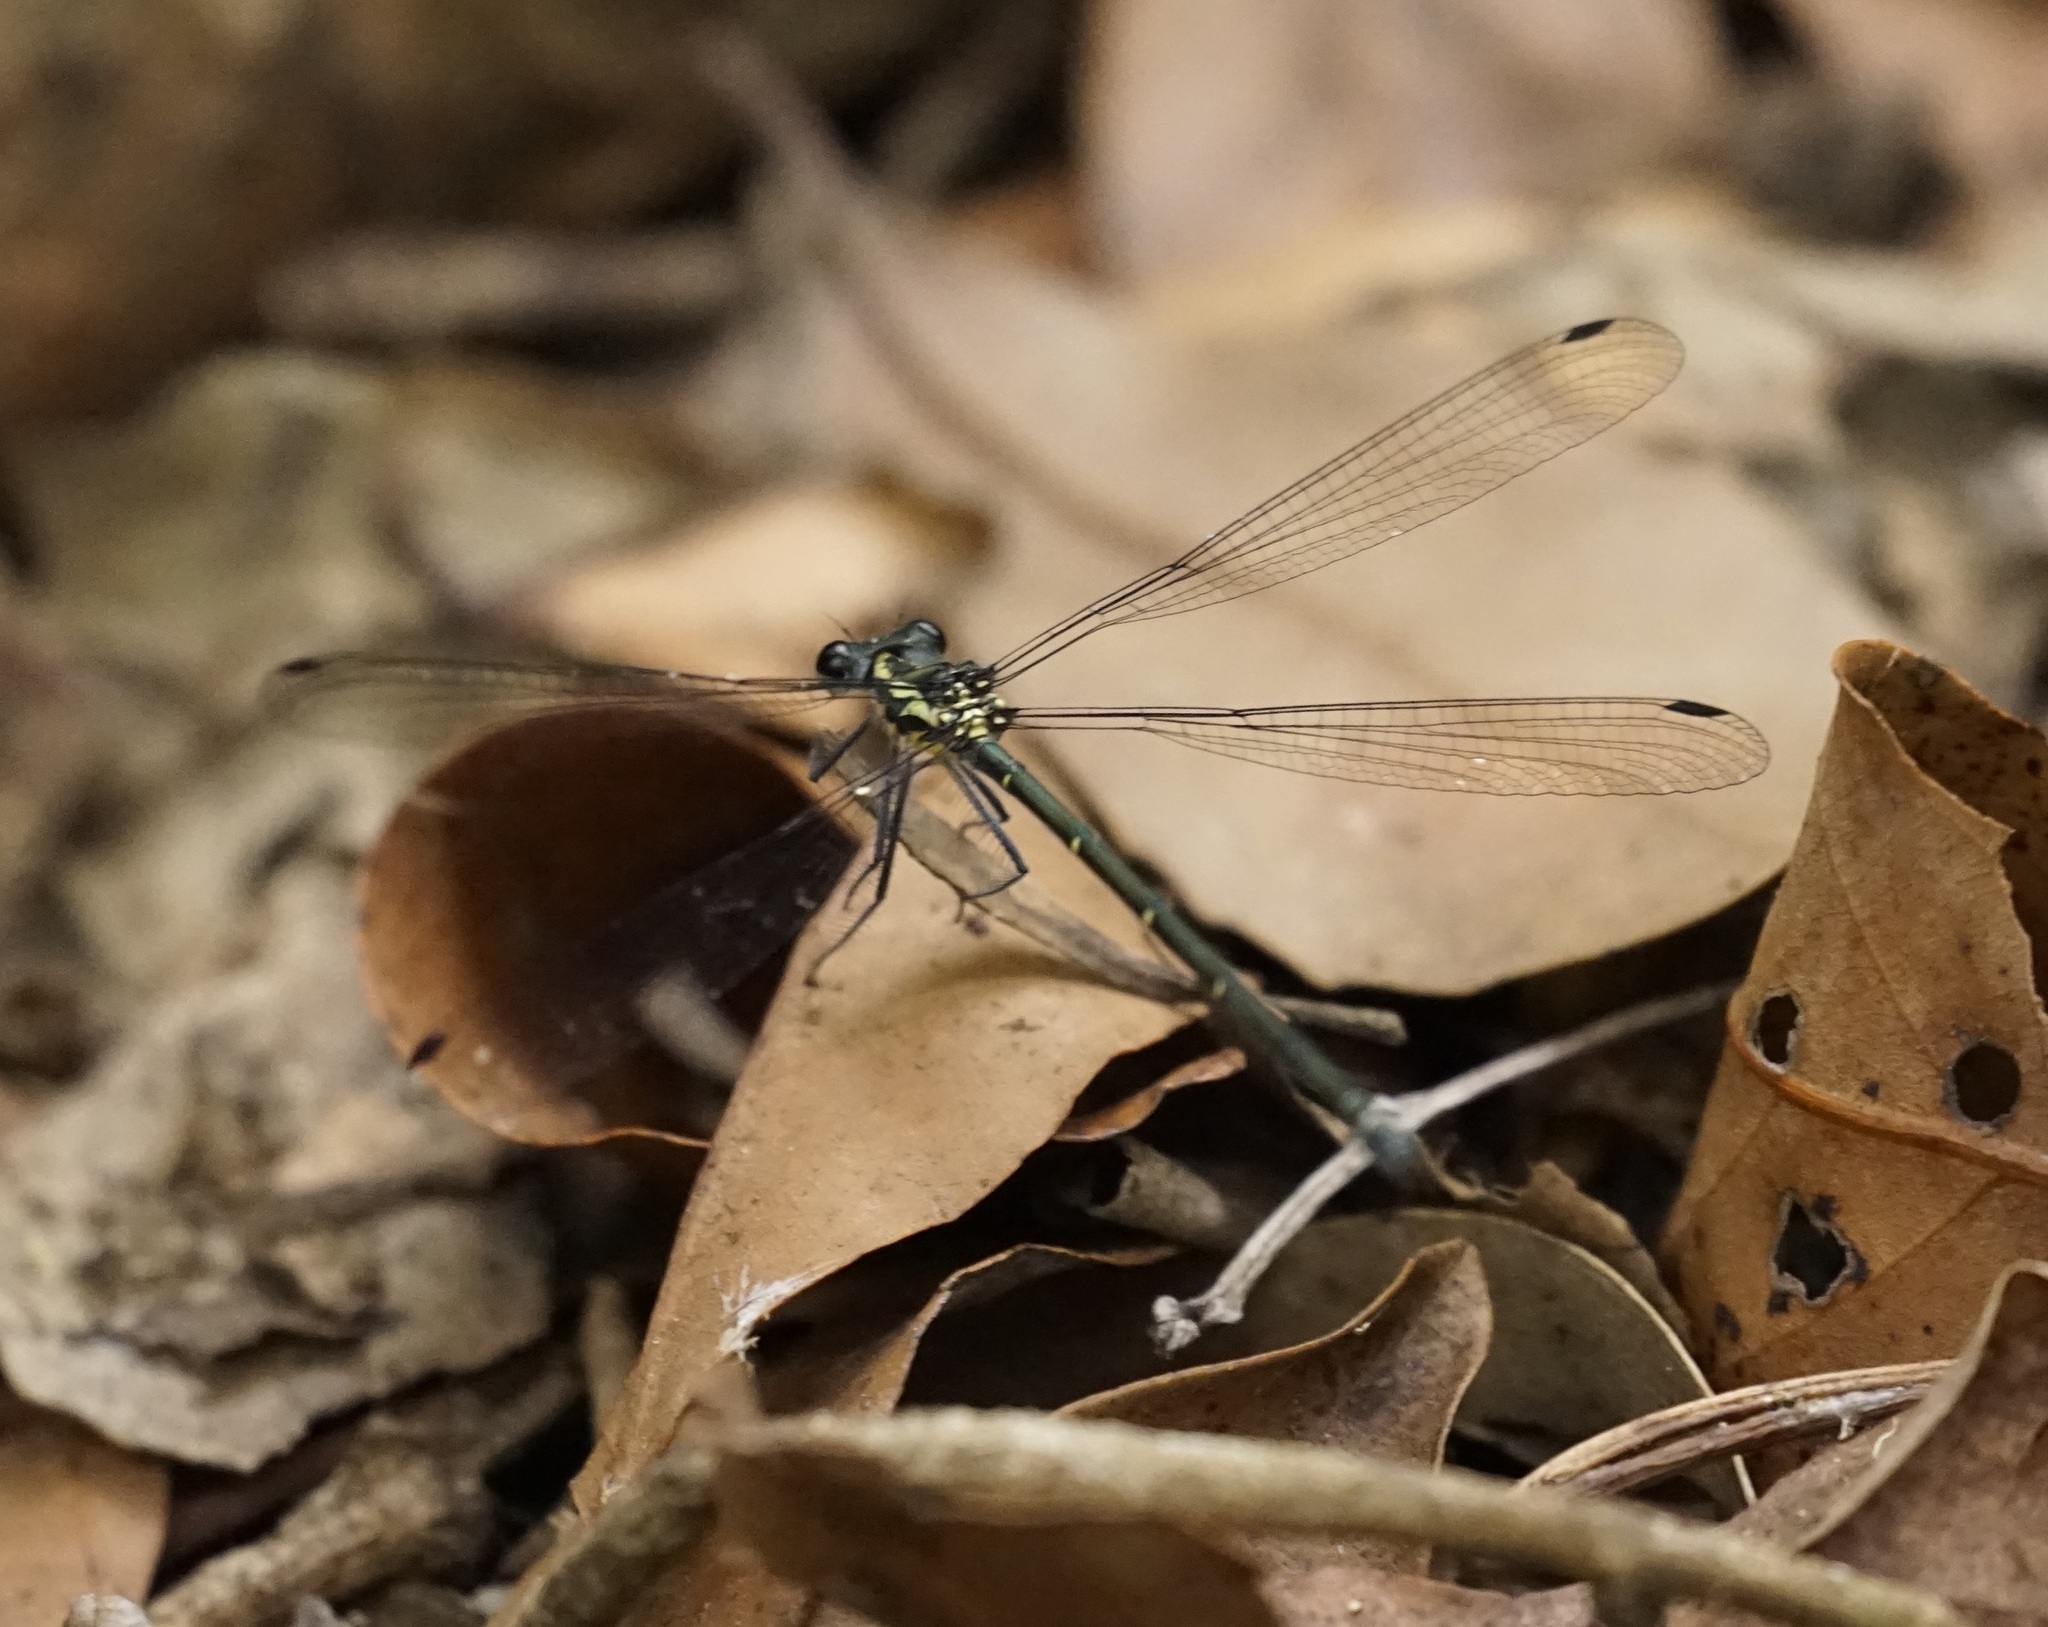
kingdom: Animalia
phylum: Arthropoda
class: Insecta
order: Odonata
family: Argiolestidae
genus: Austroargiolestes
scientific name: Austroargiolestes icteromelas
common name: Common flatwing
